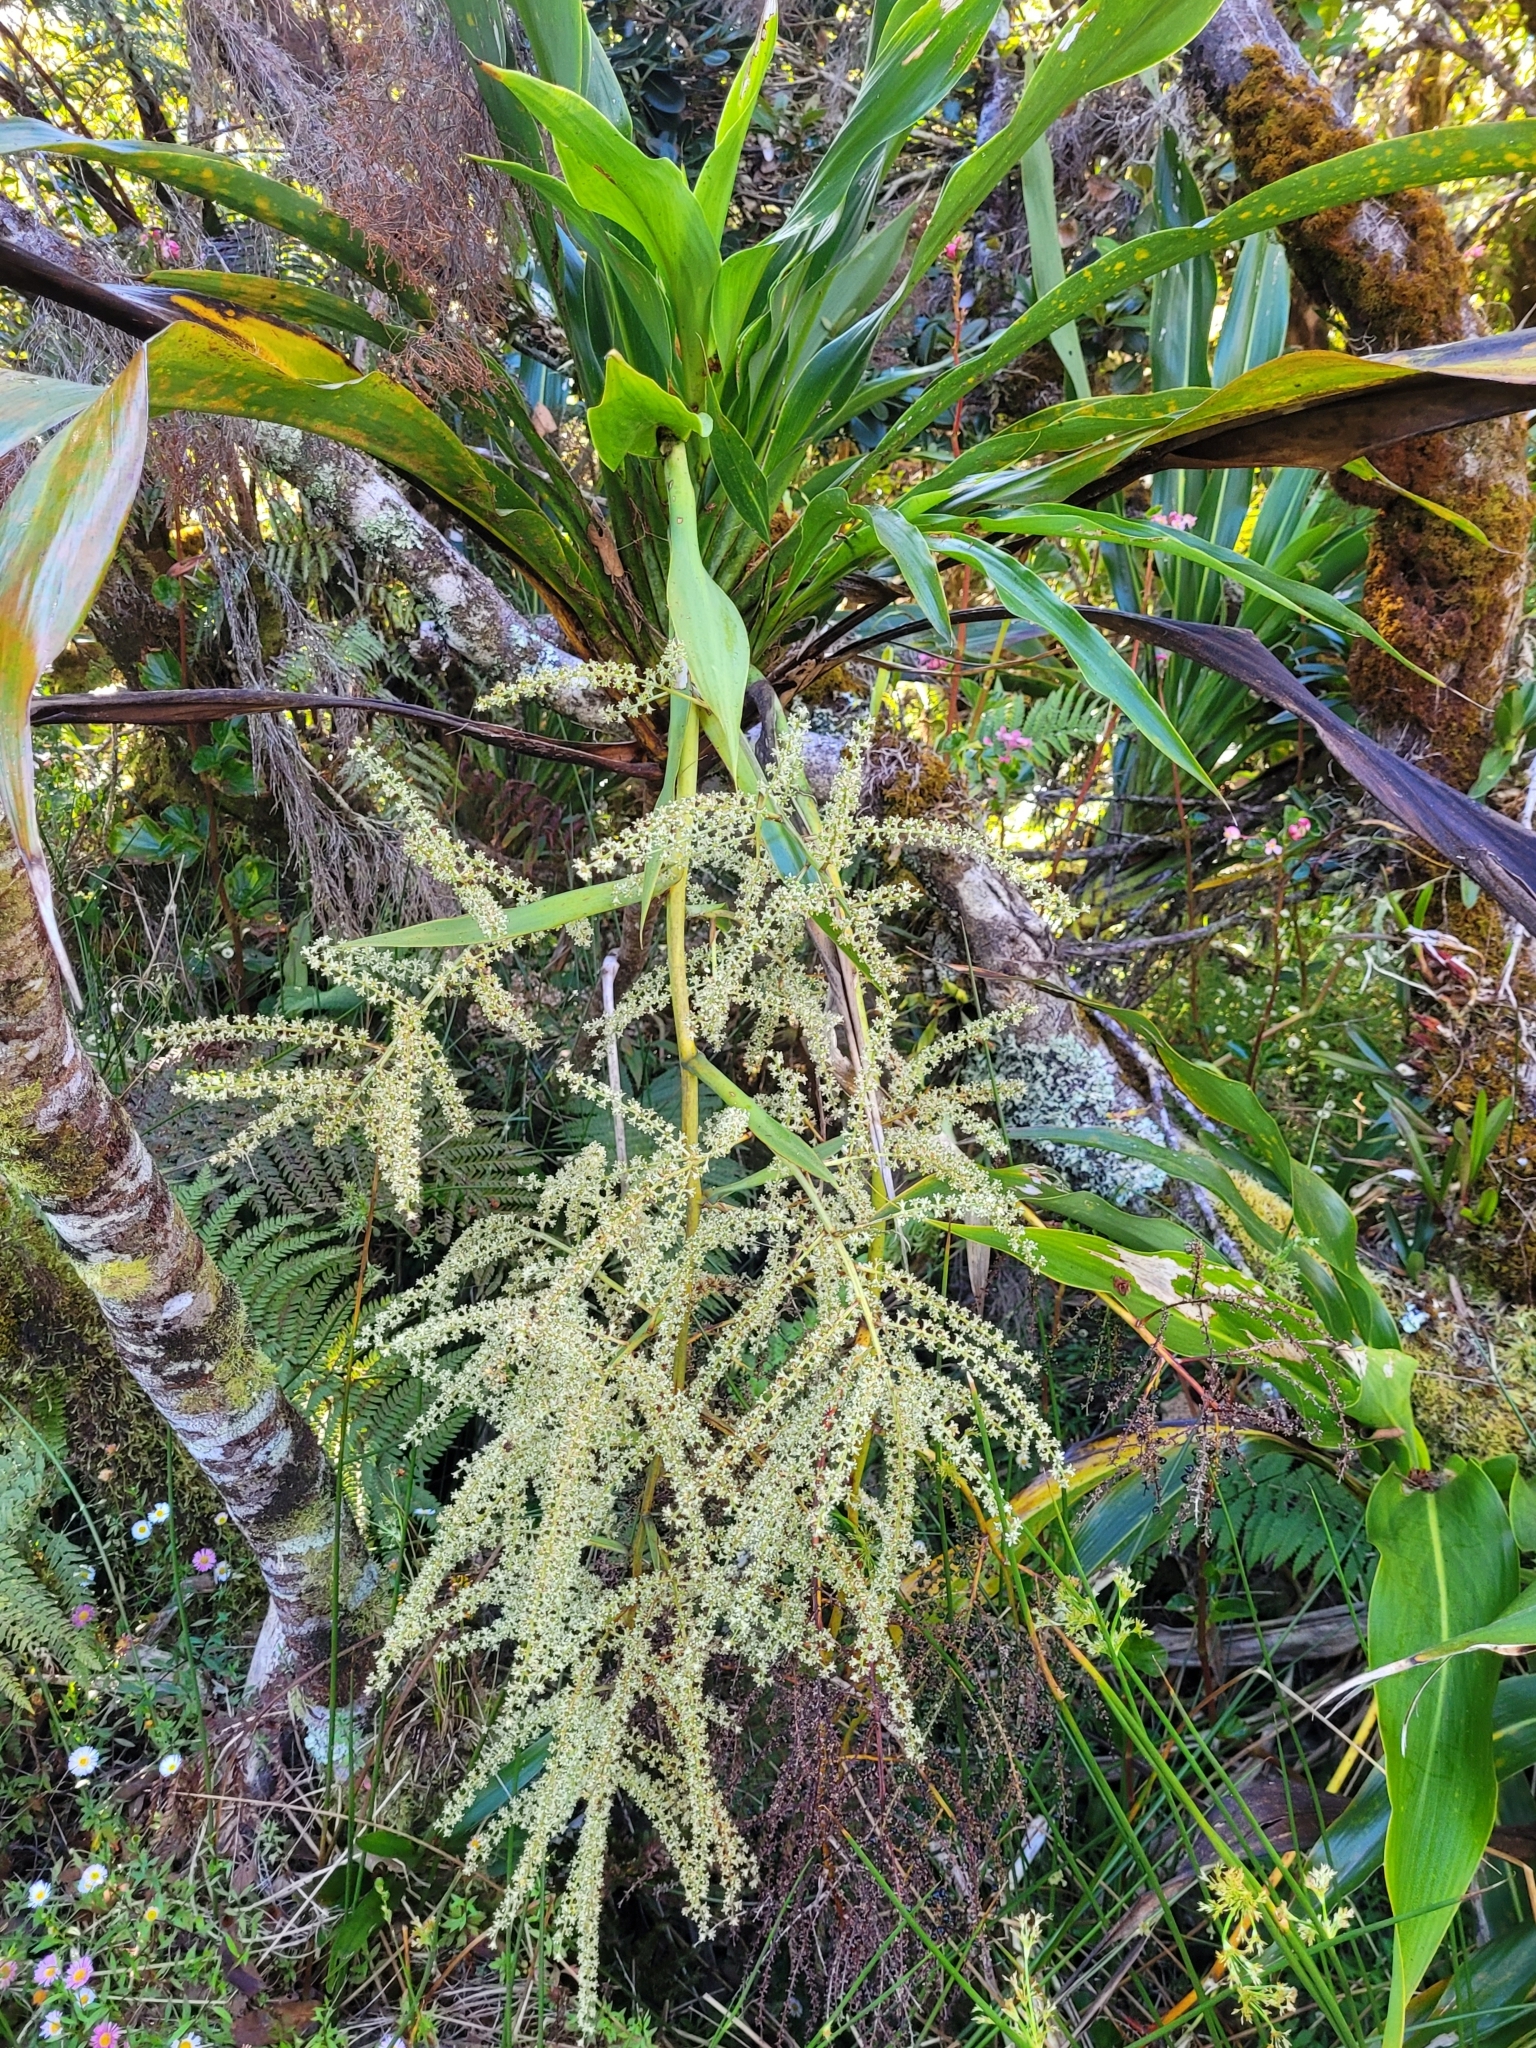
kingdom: Plantae
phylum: Tracheophyta
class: Liliopsida
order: Asparagales
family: Asparagaceae
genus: Cordyline
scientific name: Cordyline mauritiana
